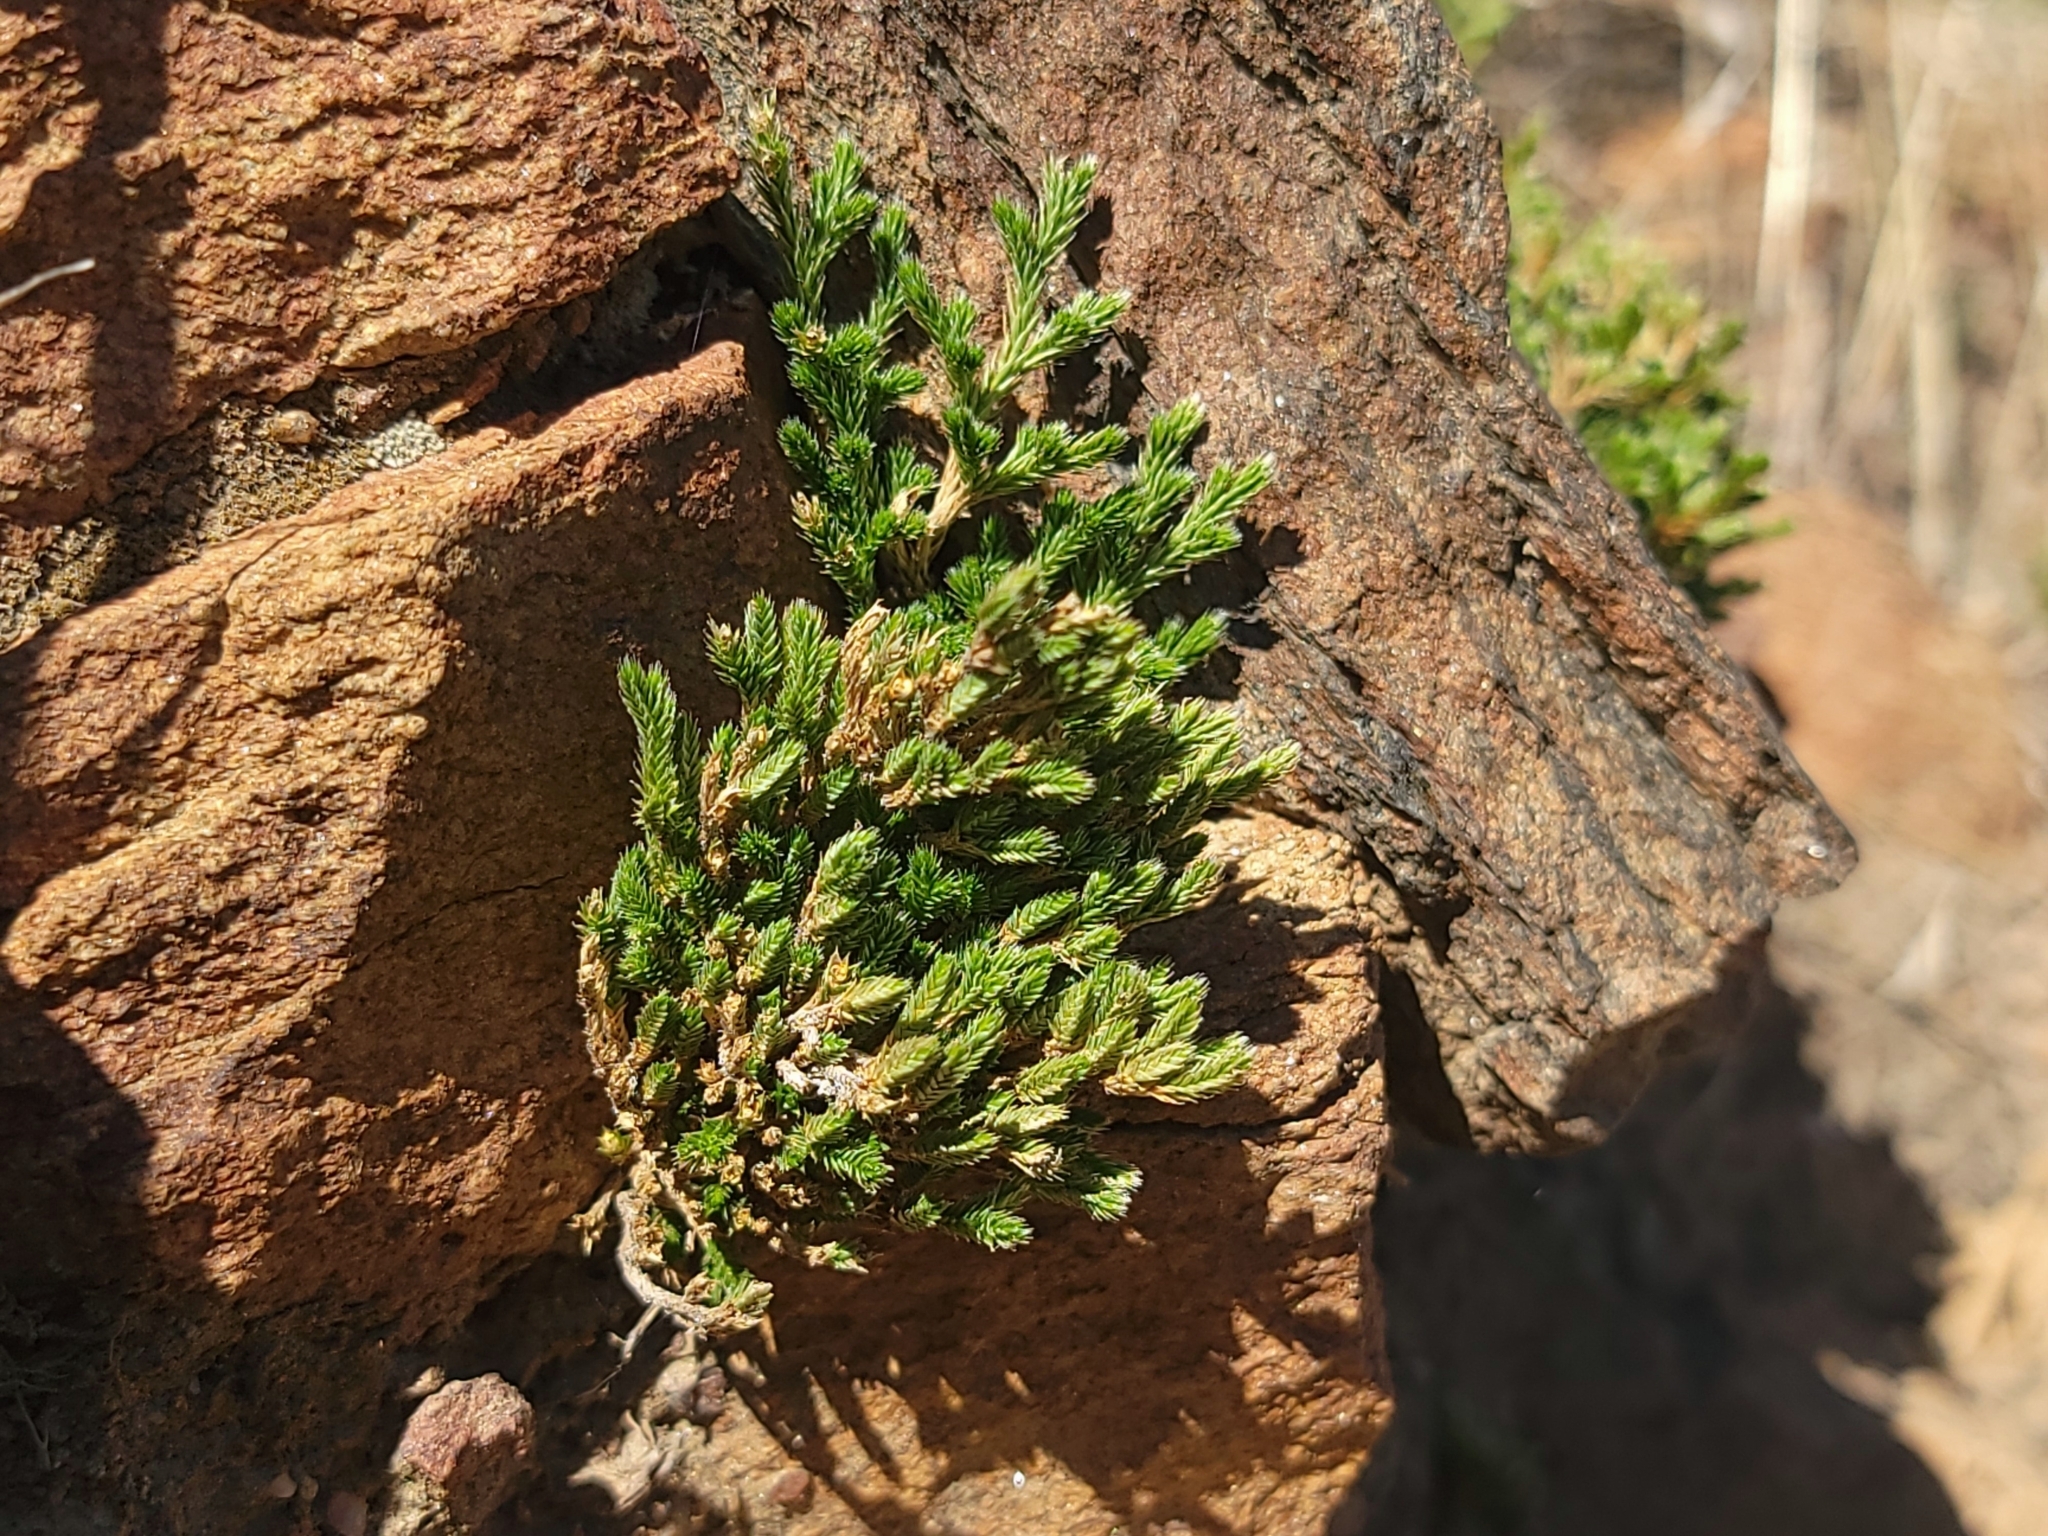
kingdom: Plantae
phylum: Tracheophyta
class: Lycopodiopsida
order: Selaginellales
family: Selaginellaceae
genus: Selaginella
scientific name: Selaginella bigelovii
